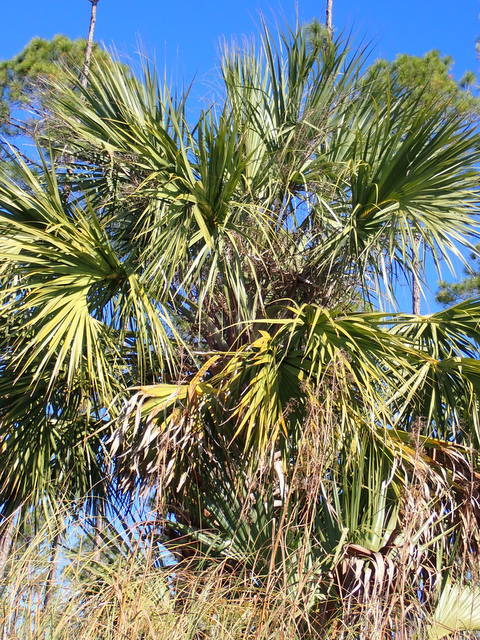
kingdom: Plantae
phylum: Tracheophyta
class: Liliopsida
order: Arecales
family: Arecaceae
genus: Sabal
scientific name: Sabal palmetto
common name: Blue palmetto
